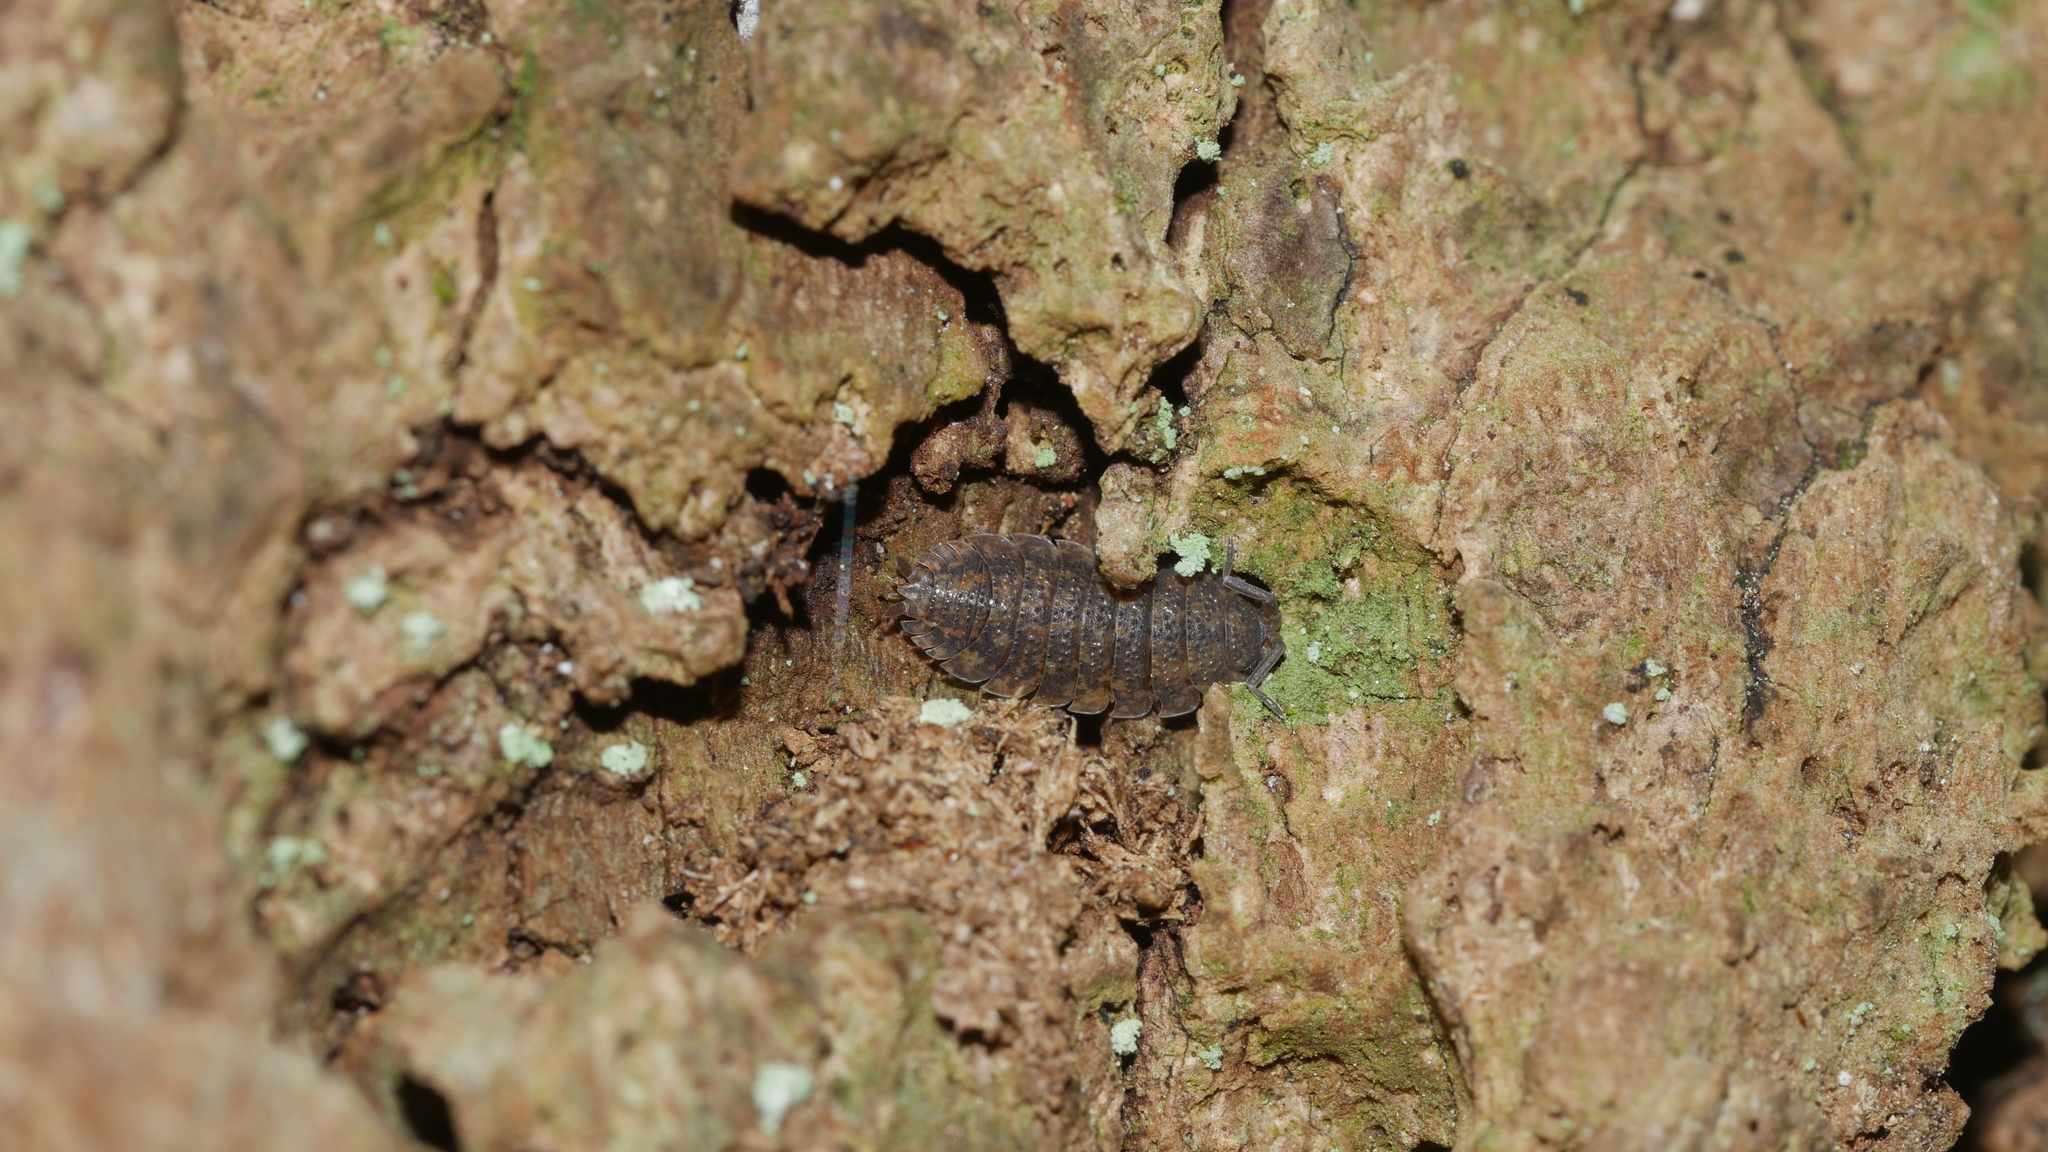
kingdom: Animalia
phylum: Arthropoda
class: Malacostraca
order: Isopoda
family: Porcellionidae
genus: Porcellio
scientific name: Porcellio scaber
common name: Common rough woodlouse
